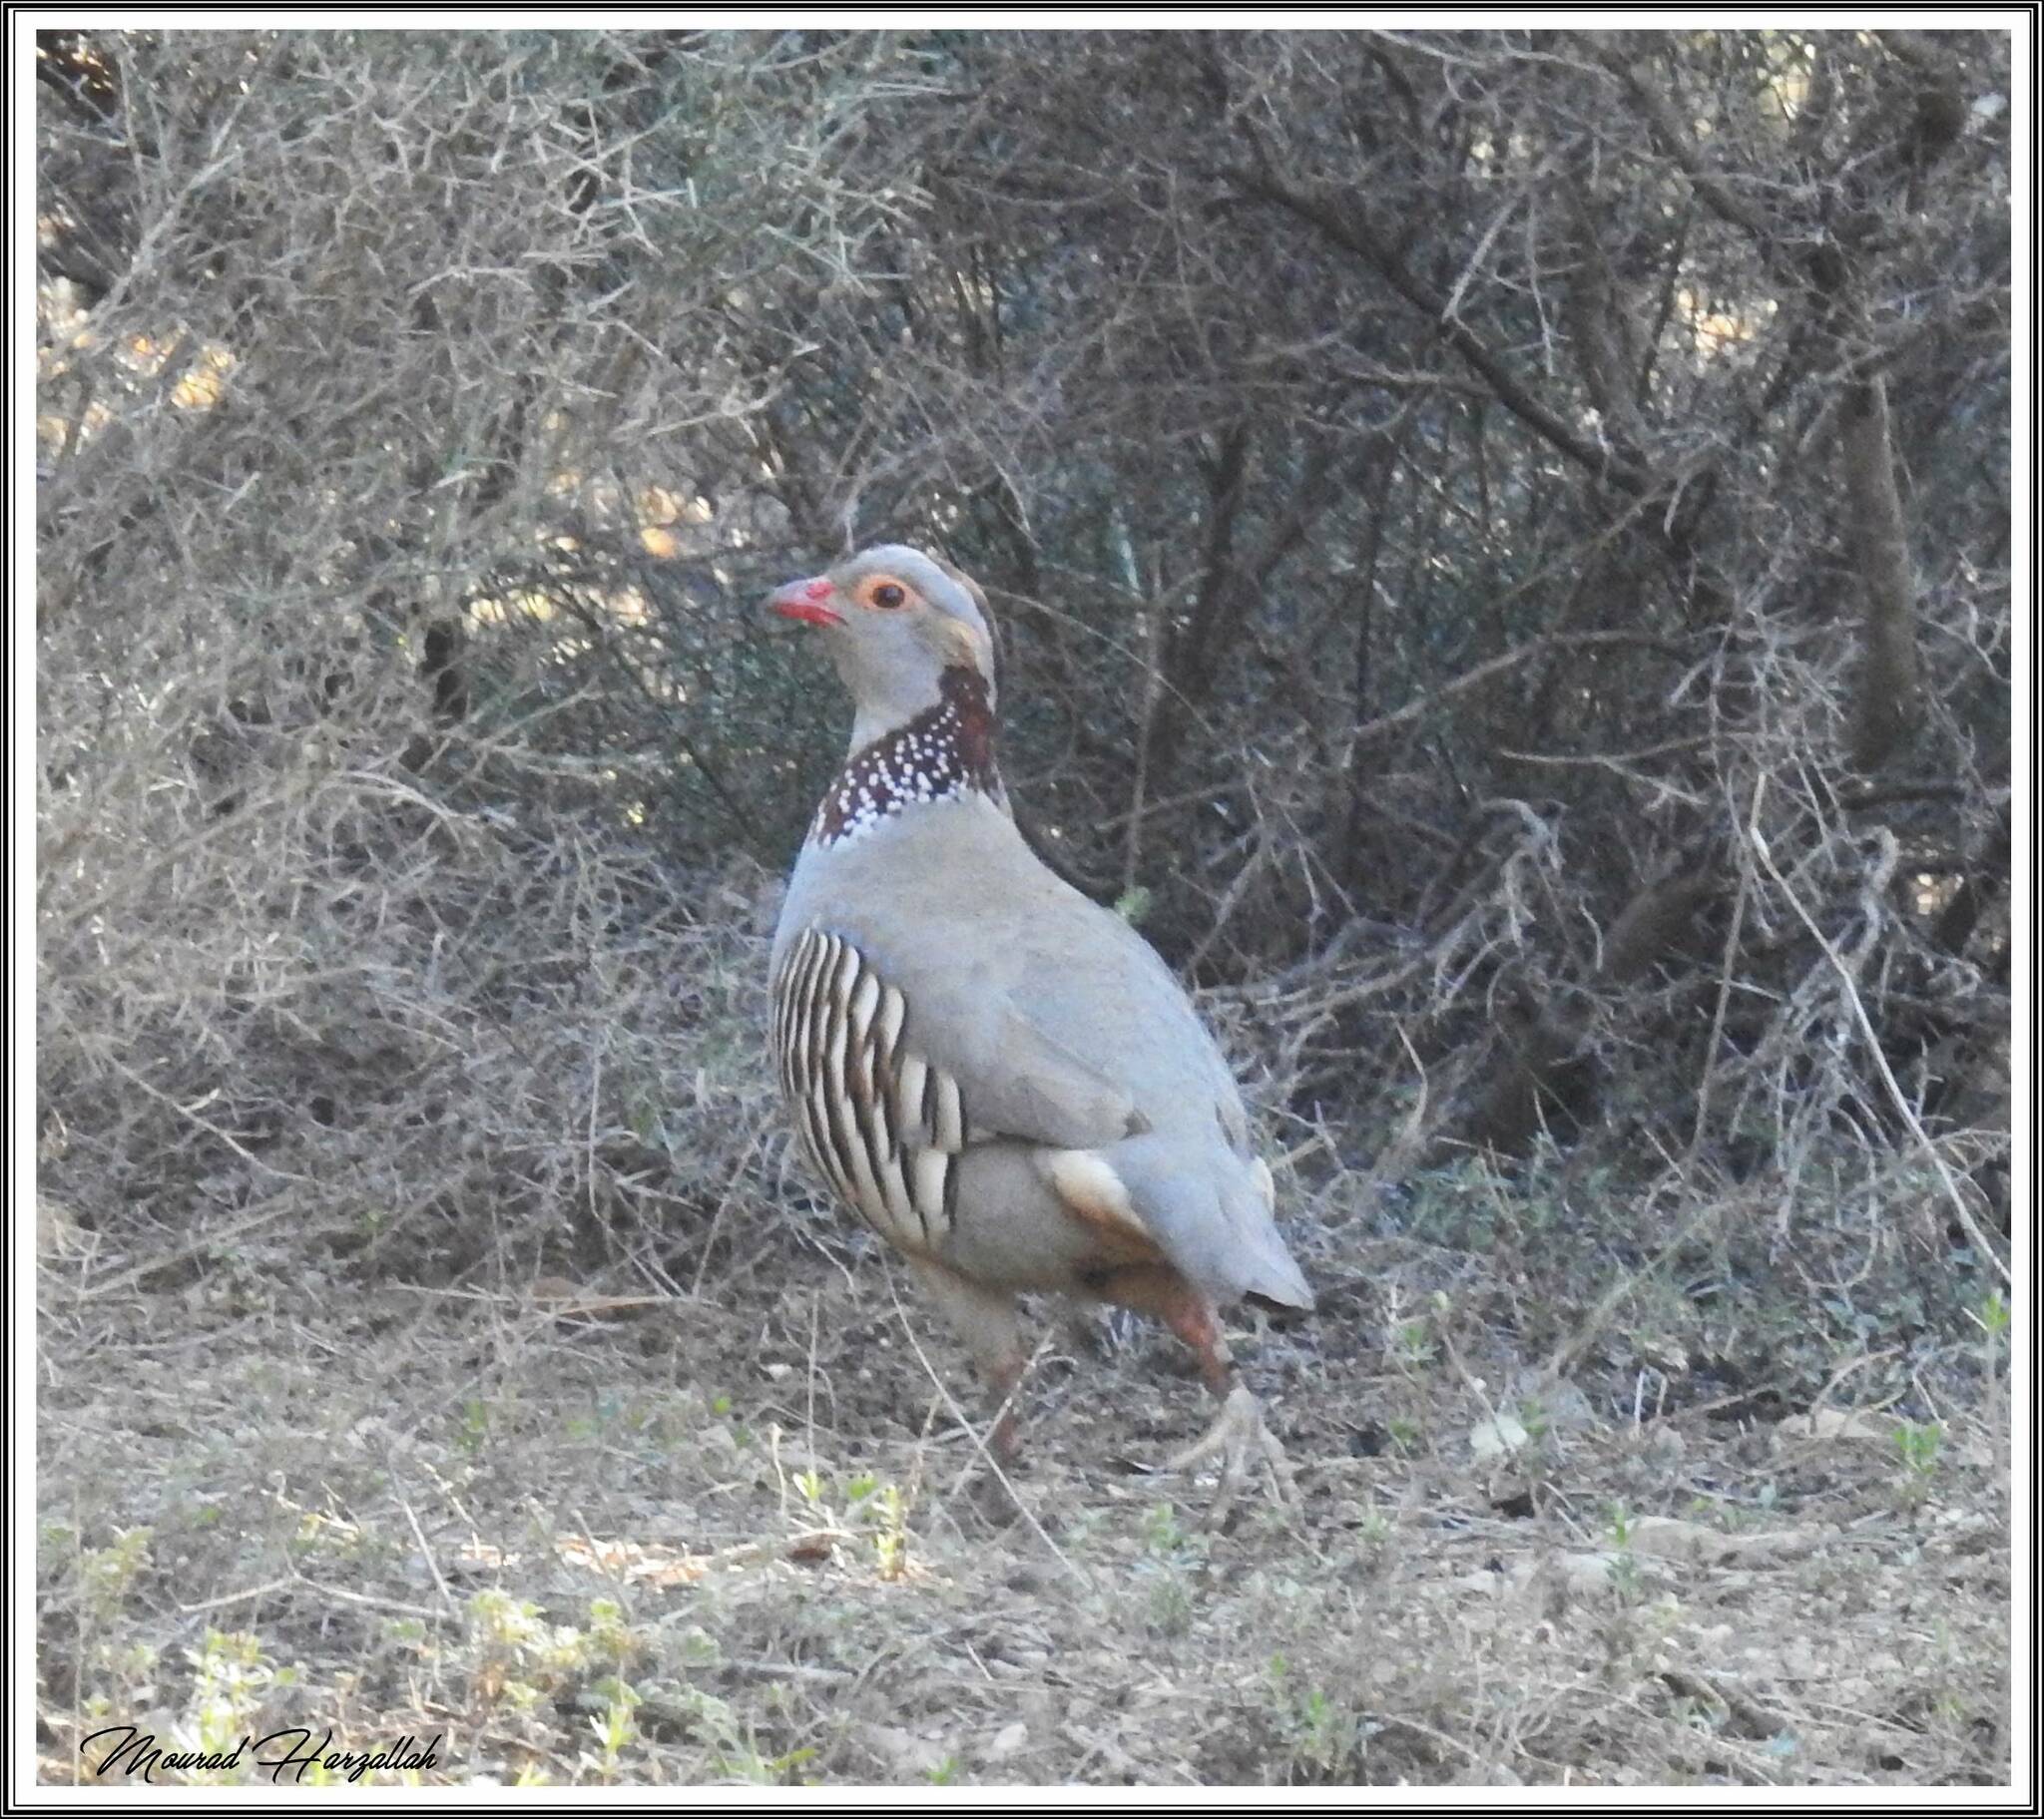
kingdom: Animalia
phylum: Chordata
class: Aves
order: Galliformes
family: Phasianidae
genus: Alectoris
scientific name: Alectoris barbara
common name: Barbary partridge
